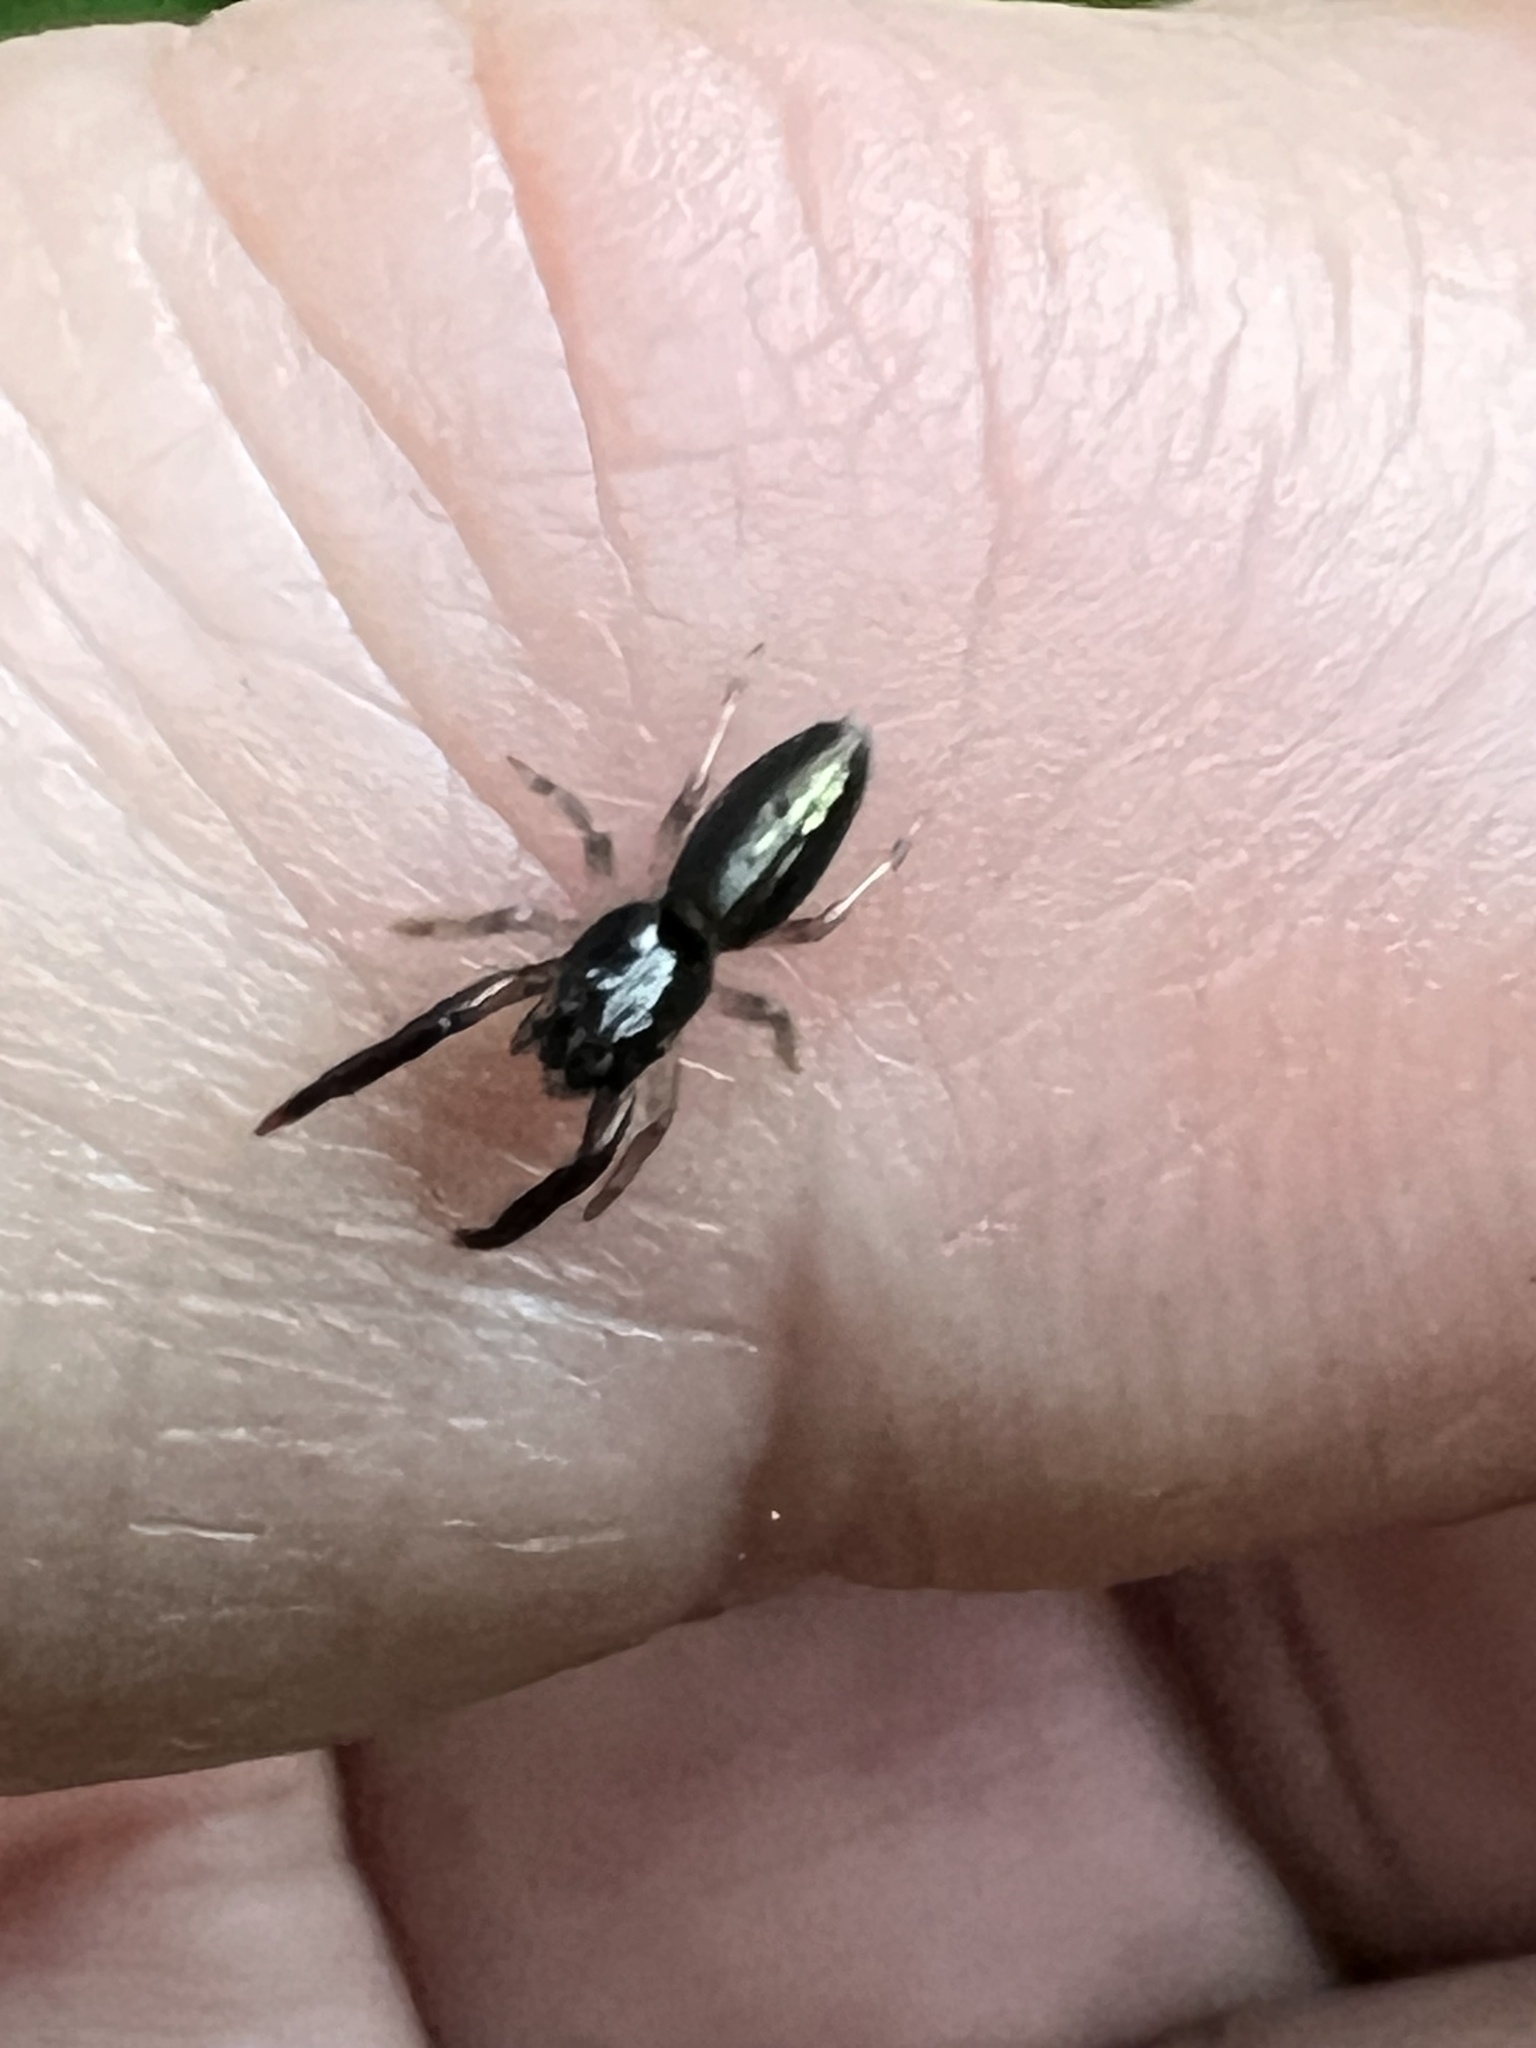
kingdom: Animalia
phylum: Arthropoda
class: Arachnida
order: Araneae
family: Salticidae
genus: Trite
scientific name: Trite planiceps
